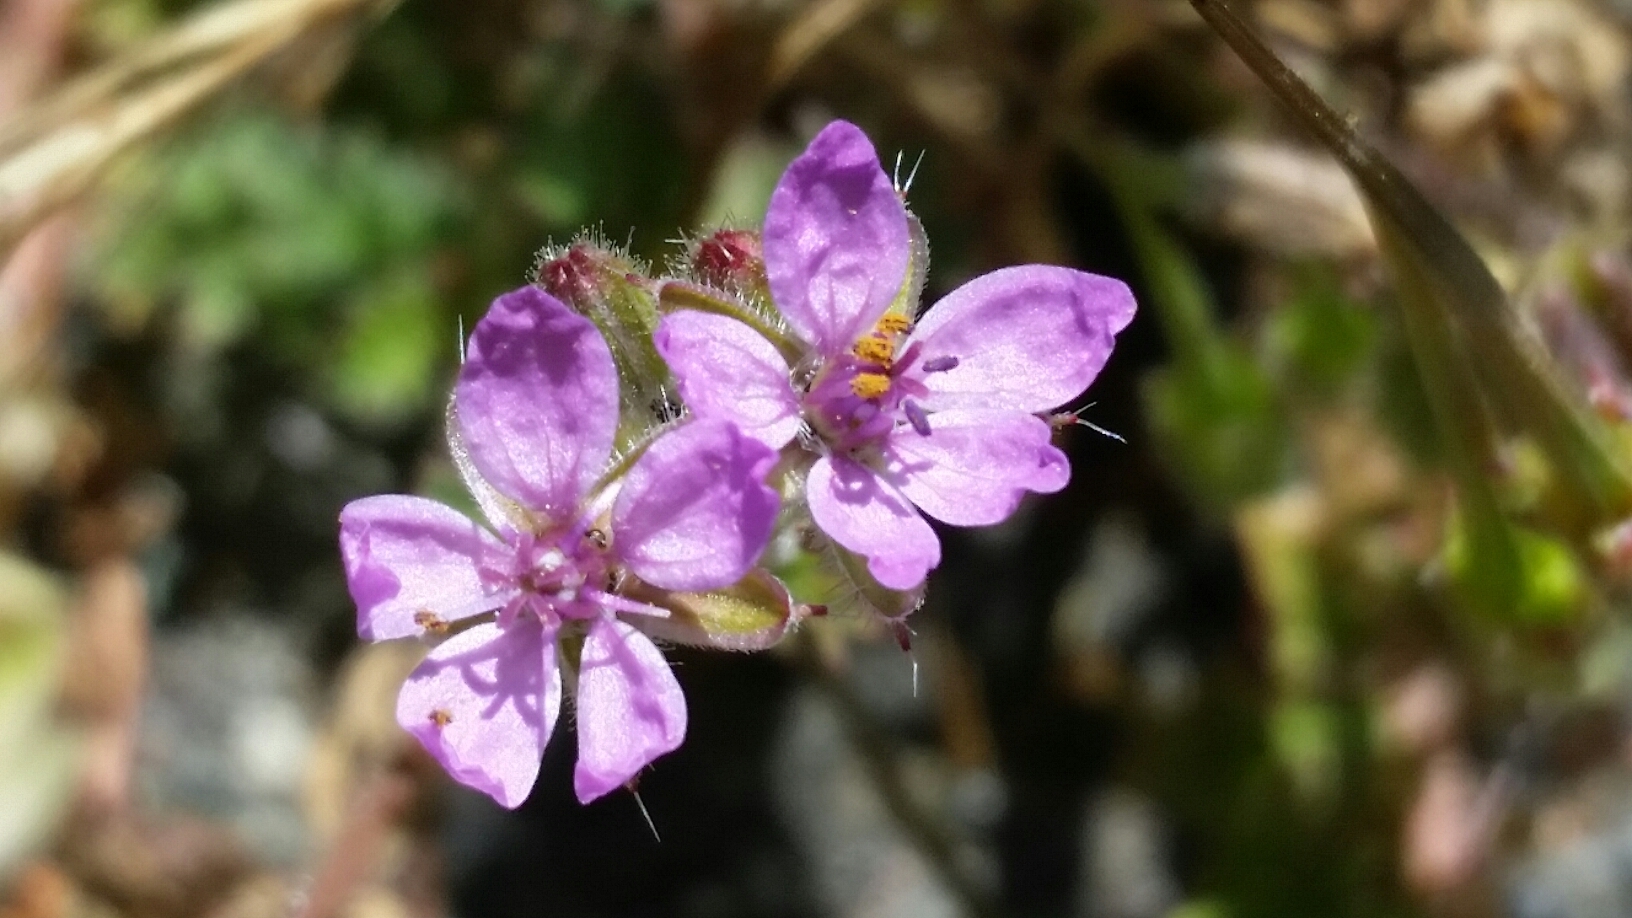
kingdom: Plantae
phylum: Tracheophyta
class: Magnoliopsida
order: Geraniales
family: Geraniaceae
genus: Erodium
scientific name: Erodium cicutarium
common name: Common stork's-bill
